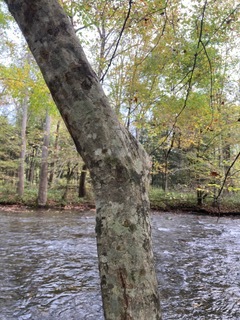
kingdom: Plantae
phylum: Tracheophyta
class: Magnoliopsida
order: Fagales
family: Betulaceae
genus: Carpinus
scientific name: Carpinus caroliniana
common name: American hornbeam
